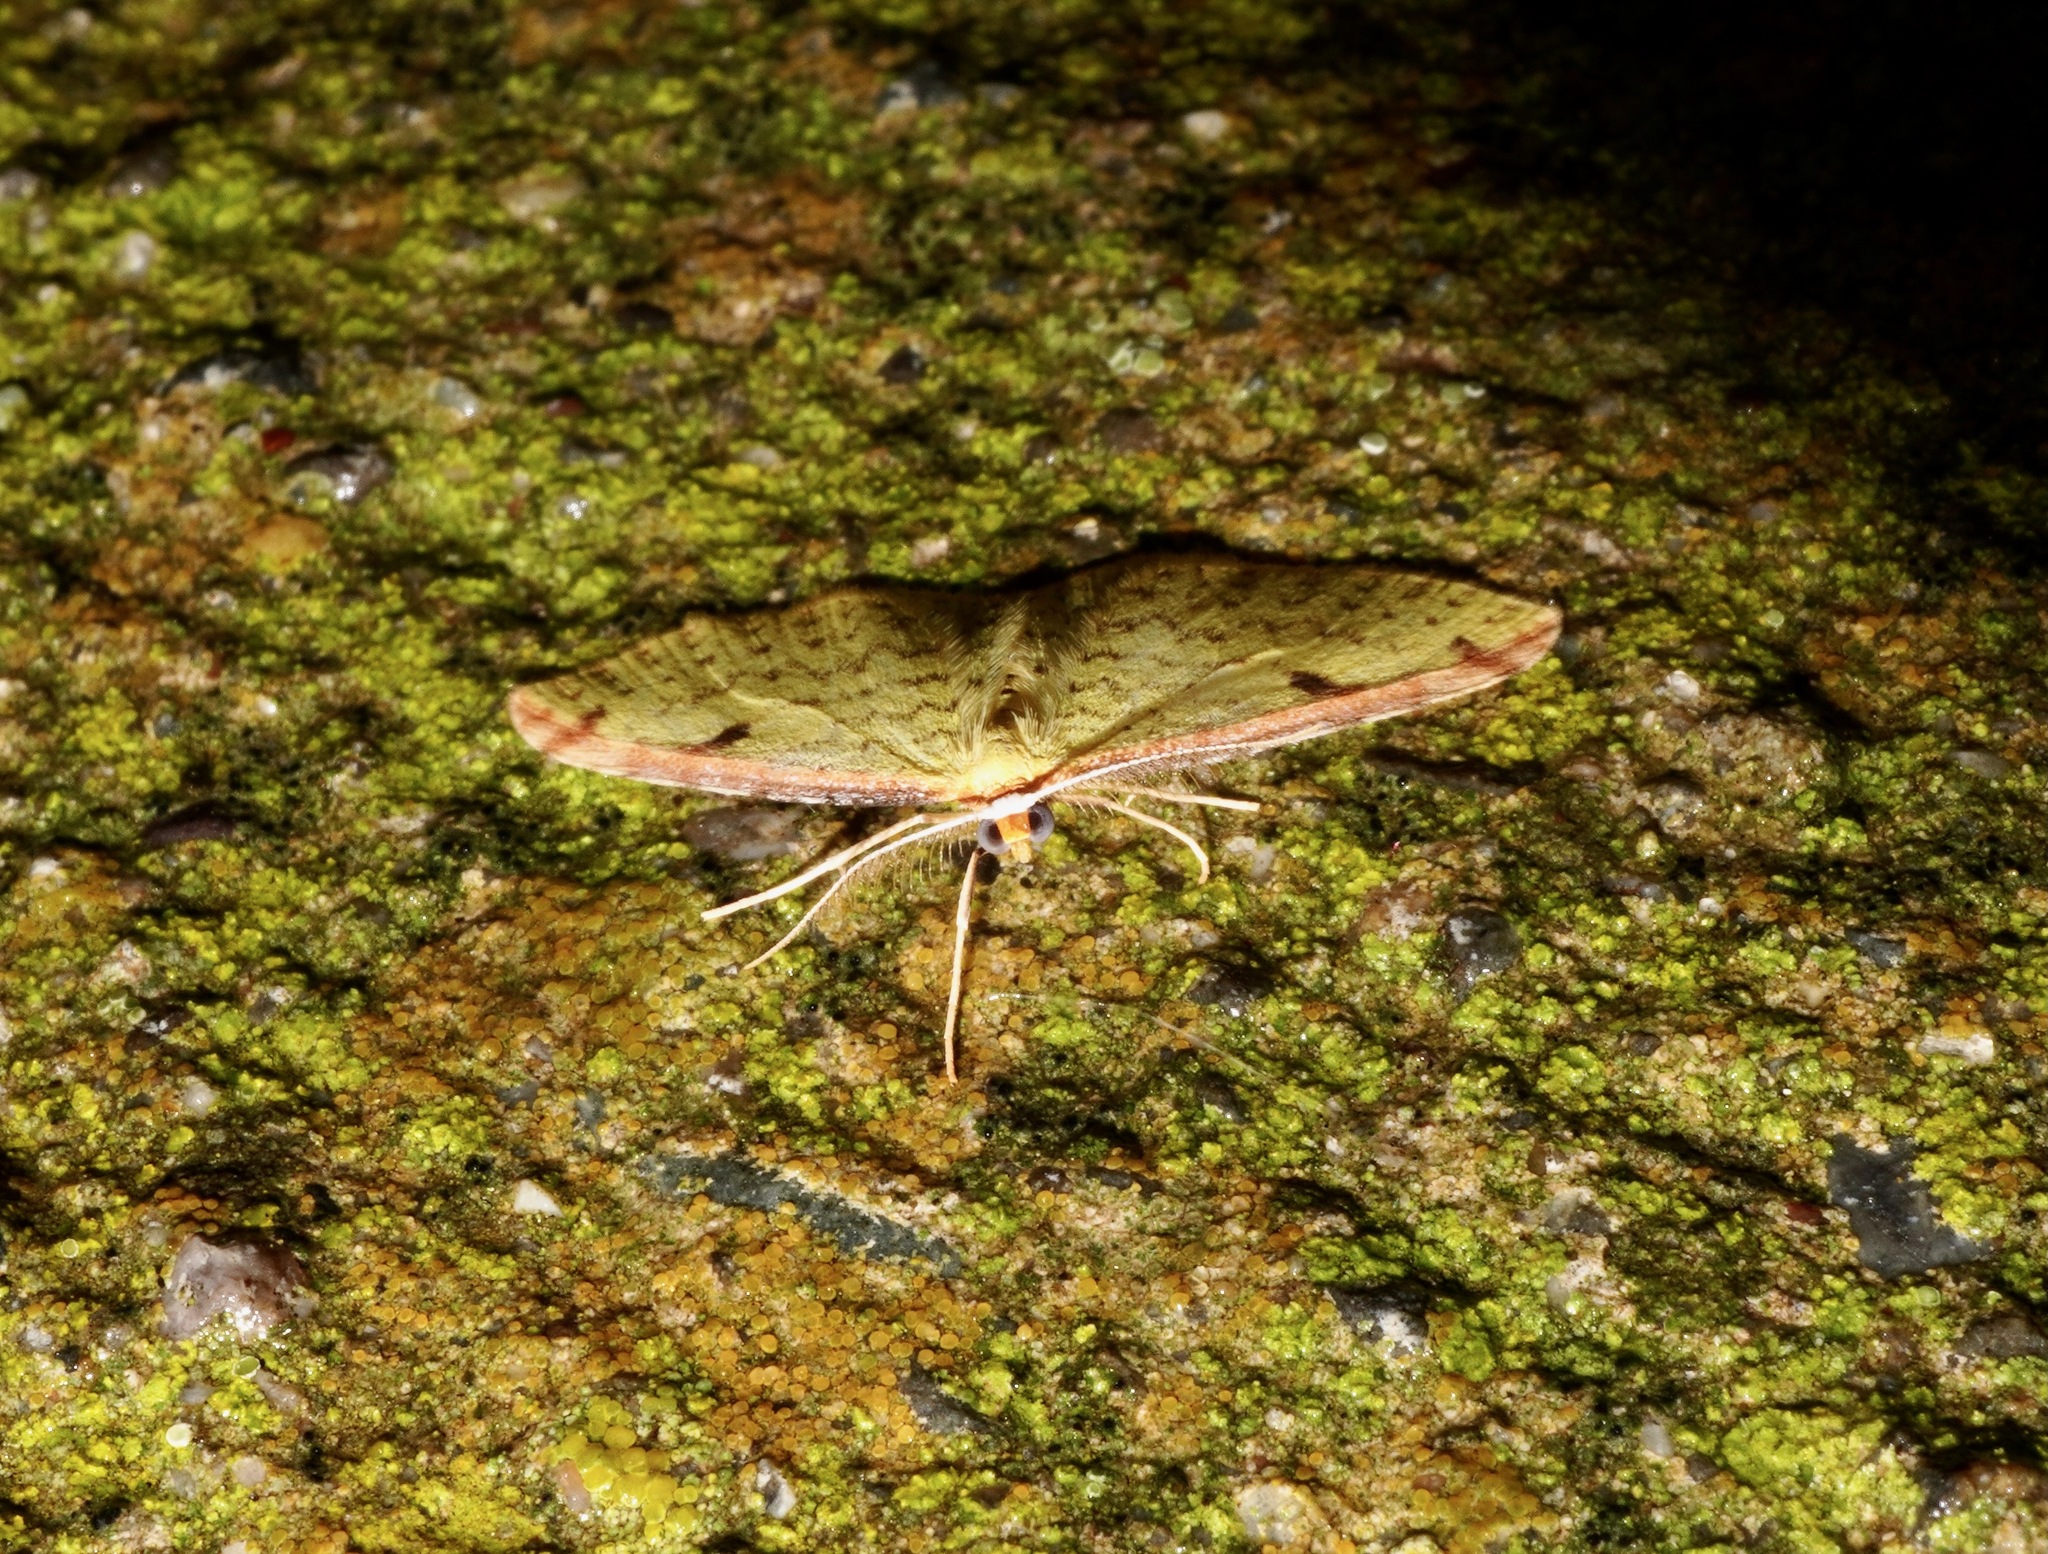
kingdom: Animalia
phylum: Arthropoda
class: Insecta
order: Lepidoptera
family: Geometridae
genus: Epiphryne
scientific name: Epiphryne undosata
